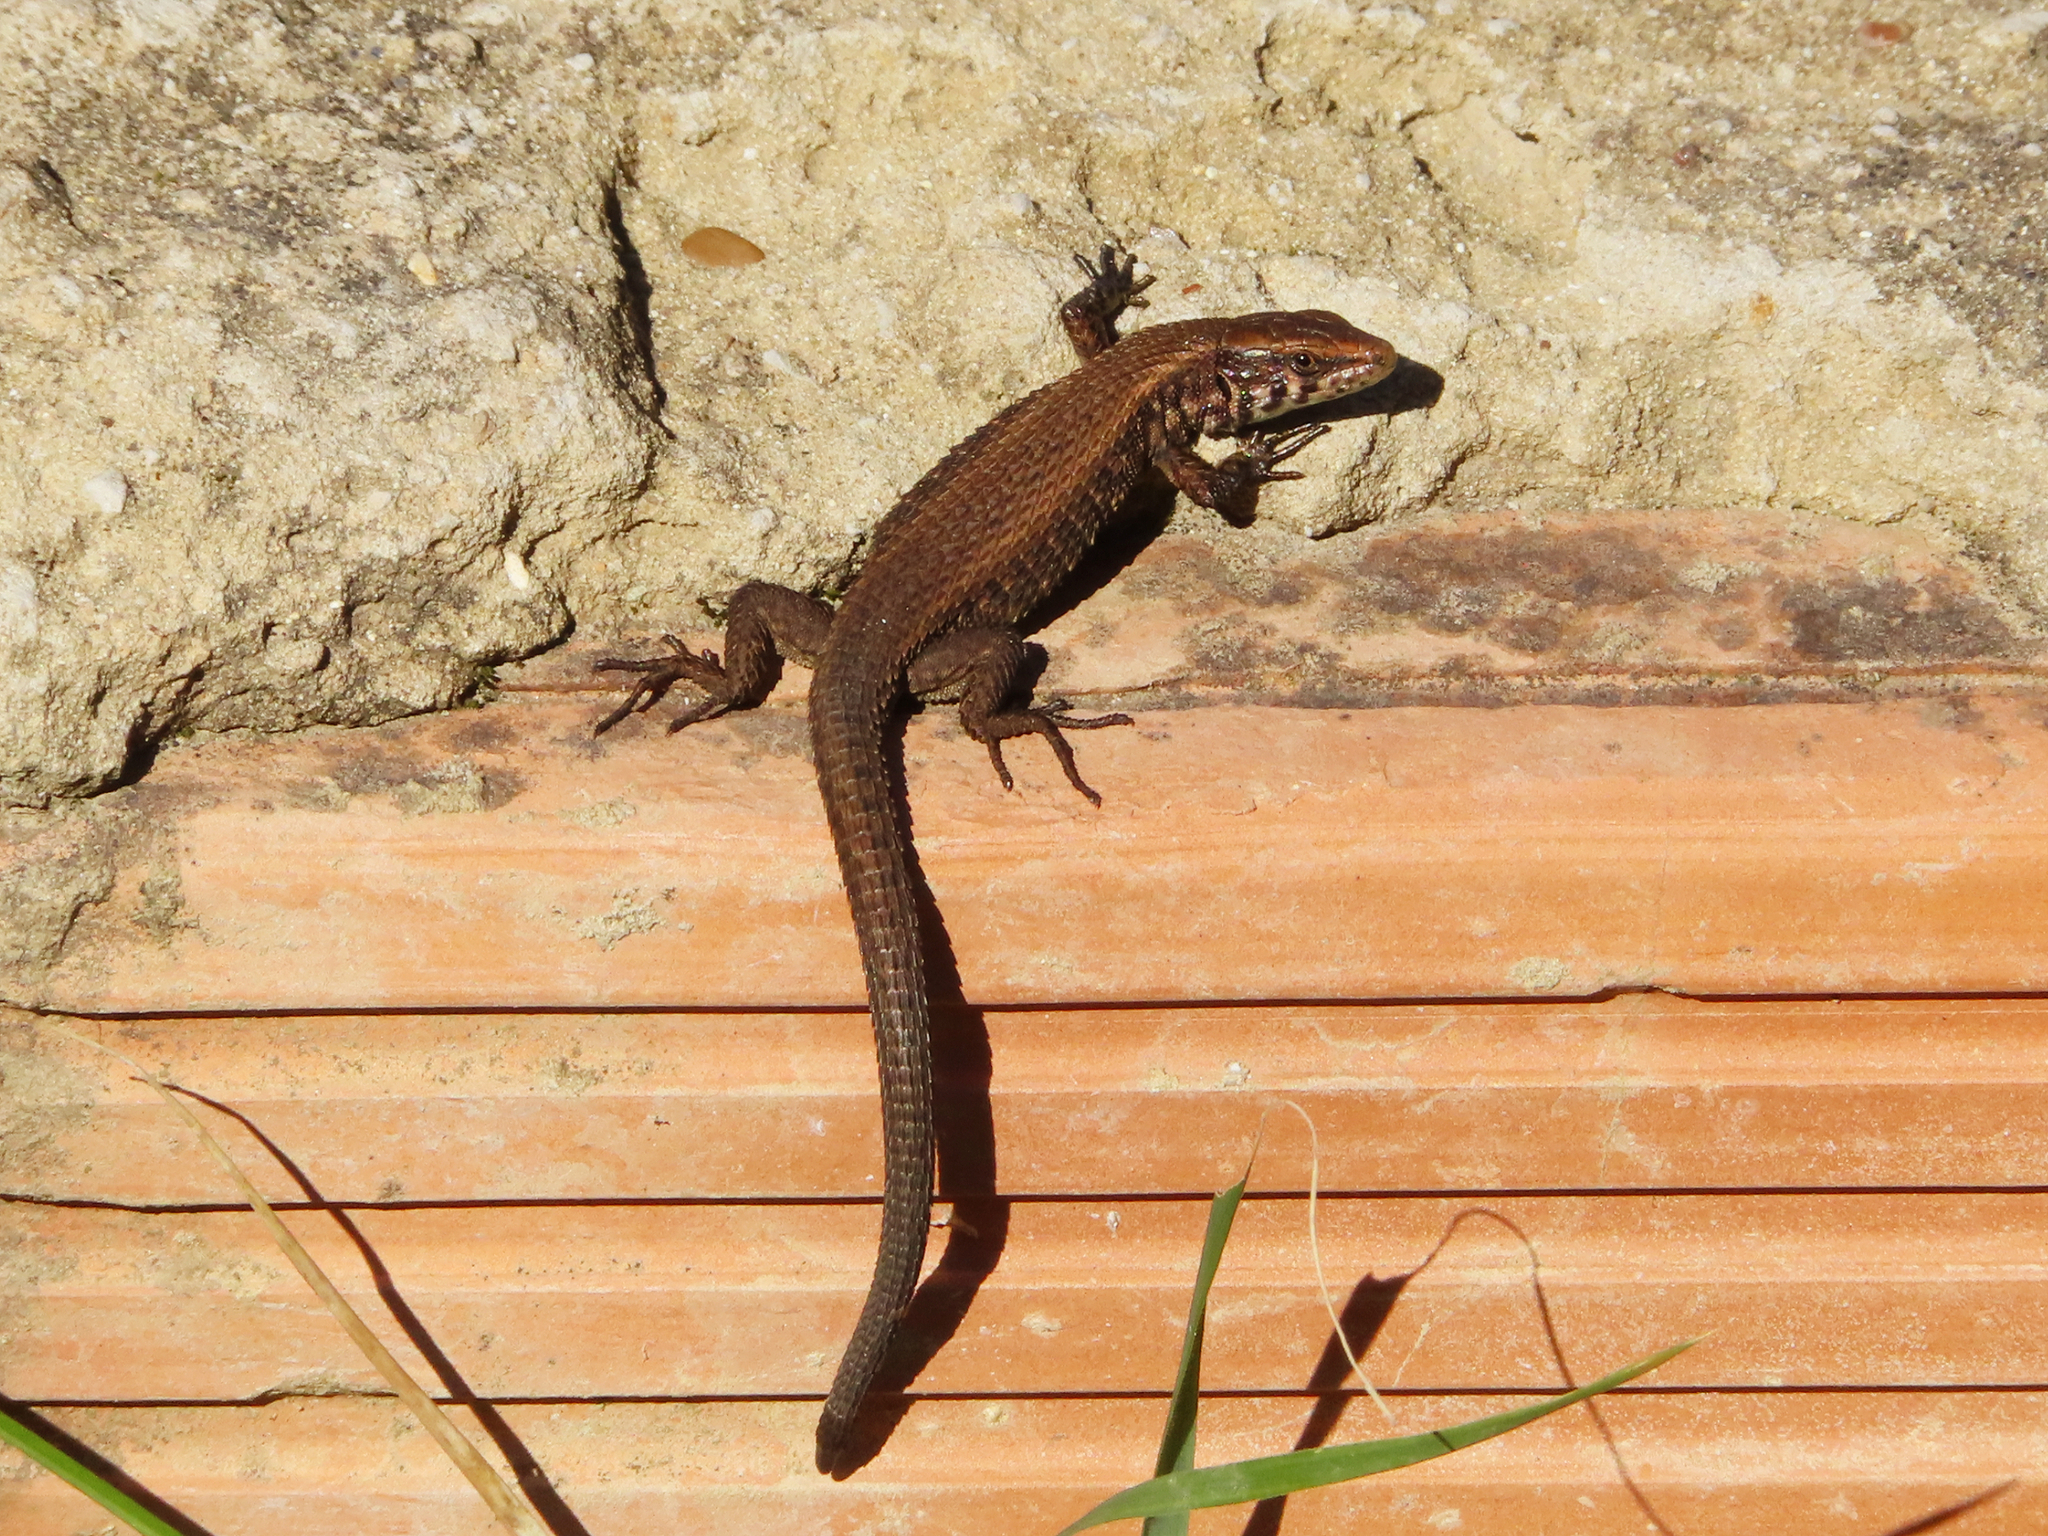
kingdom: Animalia
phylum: Chordata
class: Squamata
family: Lacertidae
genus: Algyroides
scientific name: Algyroides moreoticus
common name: Greek algyroides
